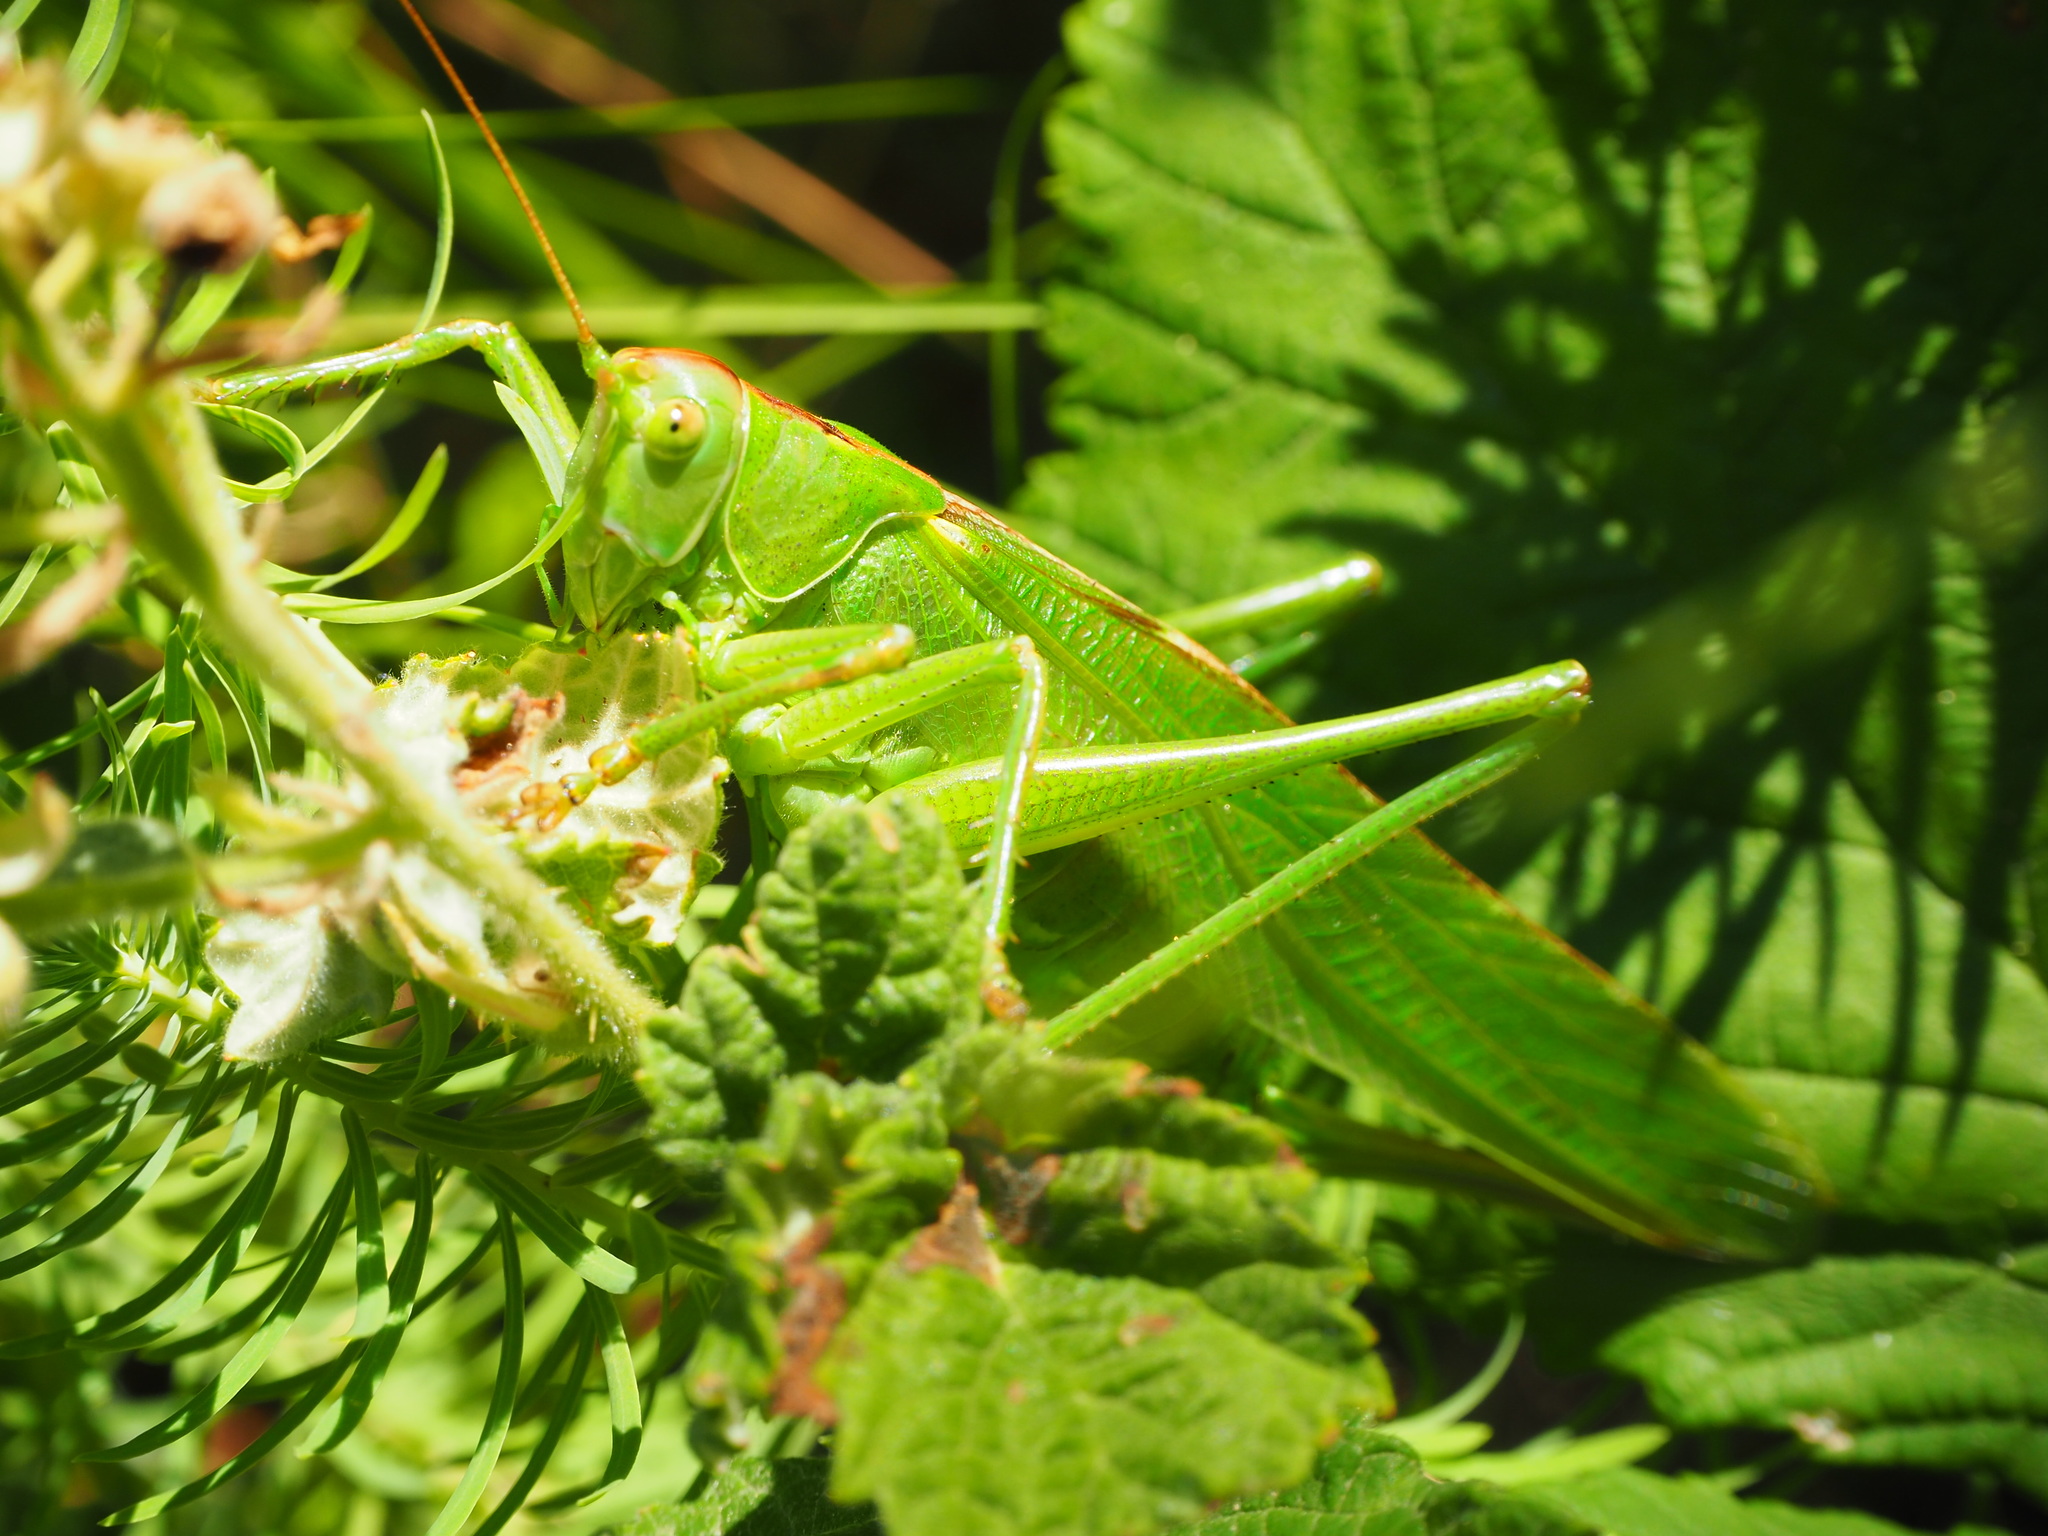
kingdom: Animalia
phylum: Arthropoda
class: Insecta
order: Orthoptera
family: Tettigoniidae
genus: Tettigonia
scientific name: Tettigonia viridissima
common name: Great green bush-cricket
